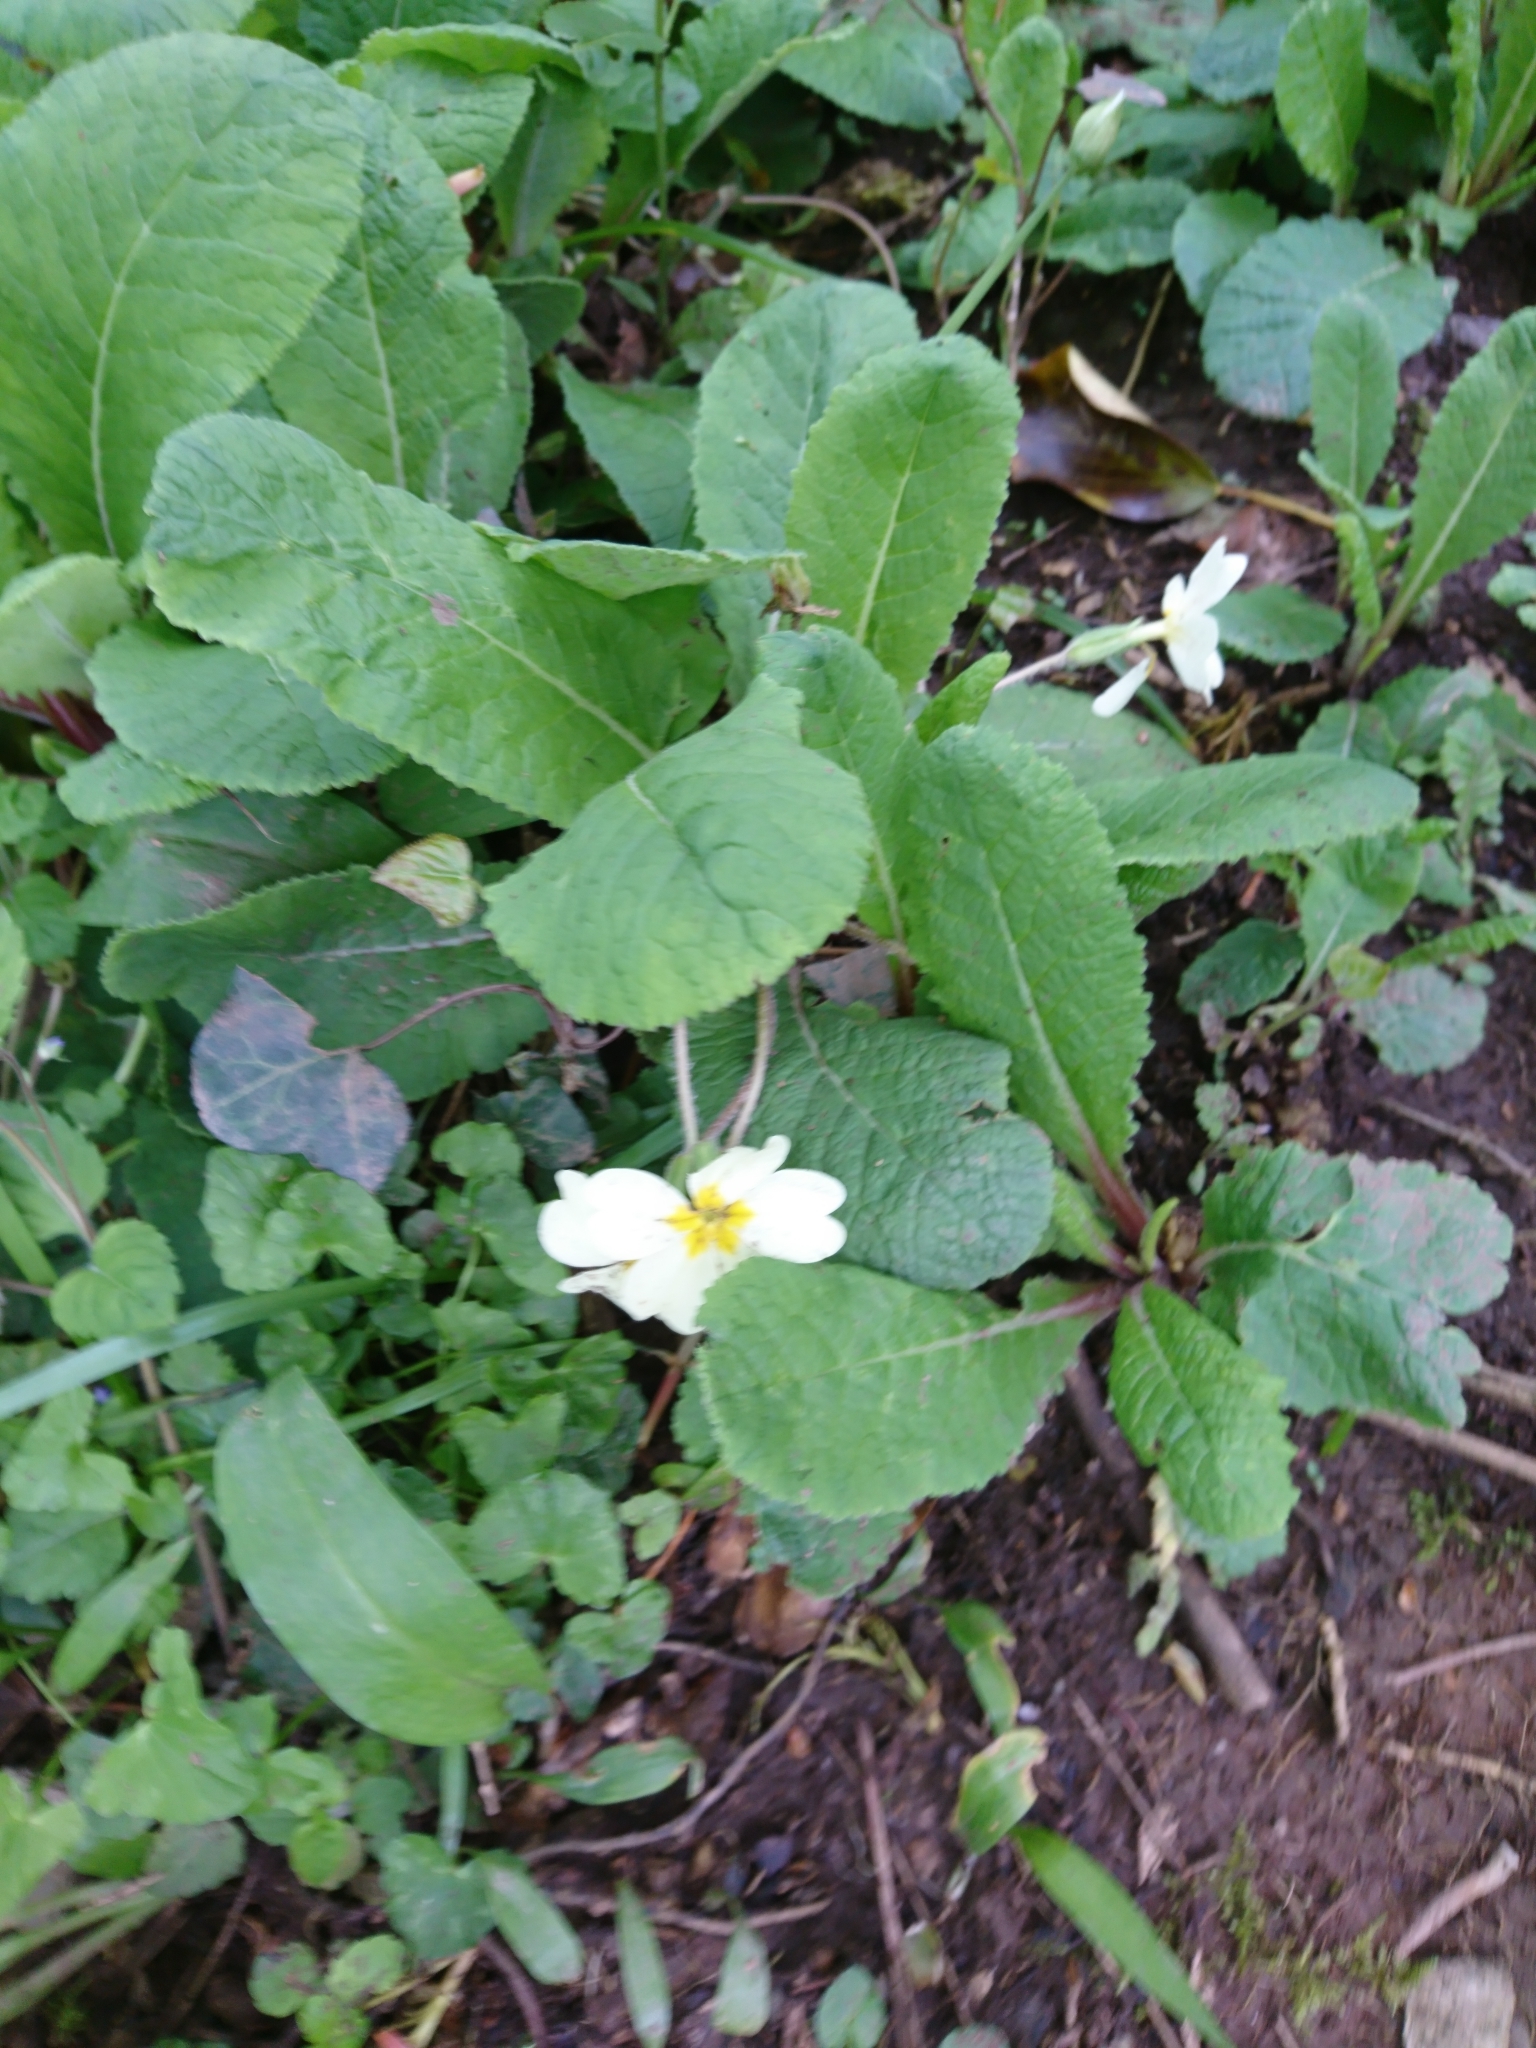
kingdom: Plantae
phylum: Tracheophyta
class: Magnoliopsida
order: Ericales
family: Primulaceae
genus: Primula
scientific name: Primula vulgaris
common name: Primrose
